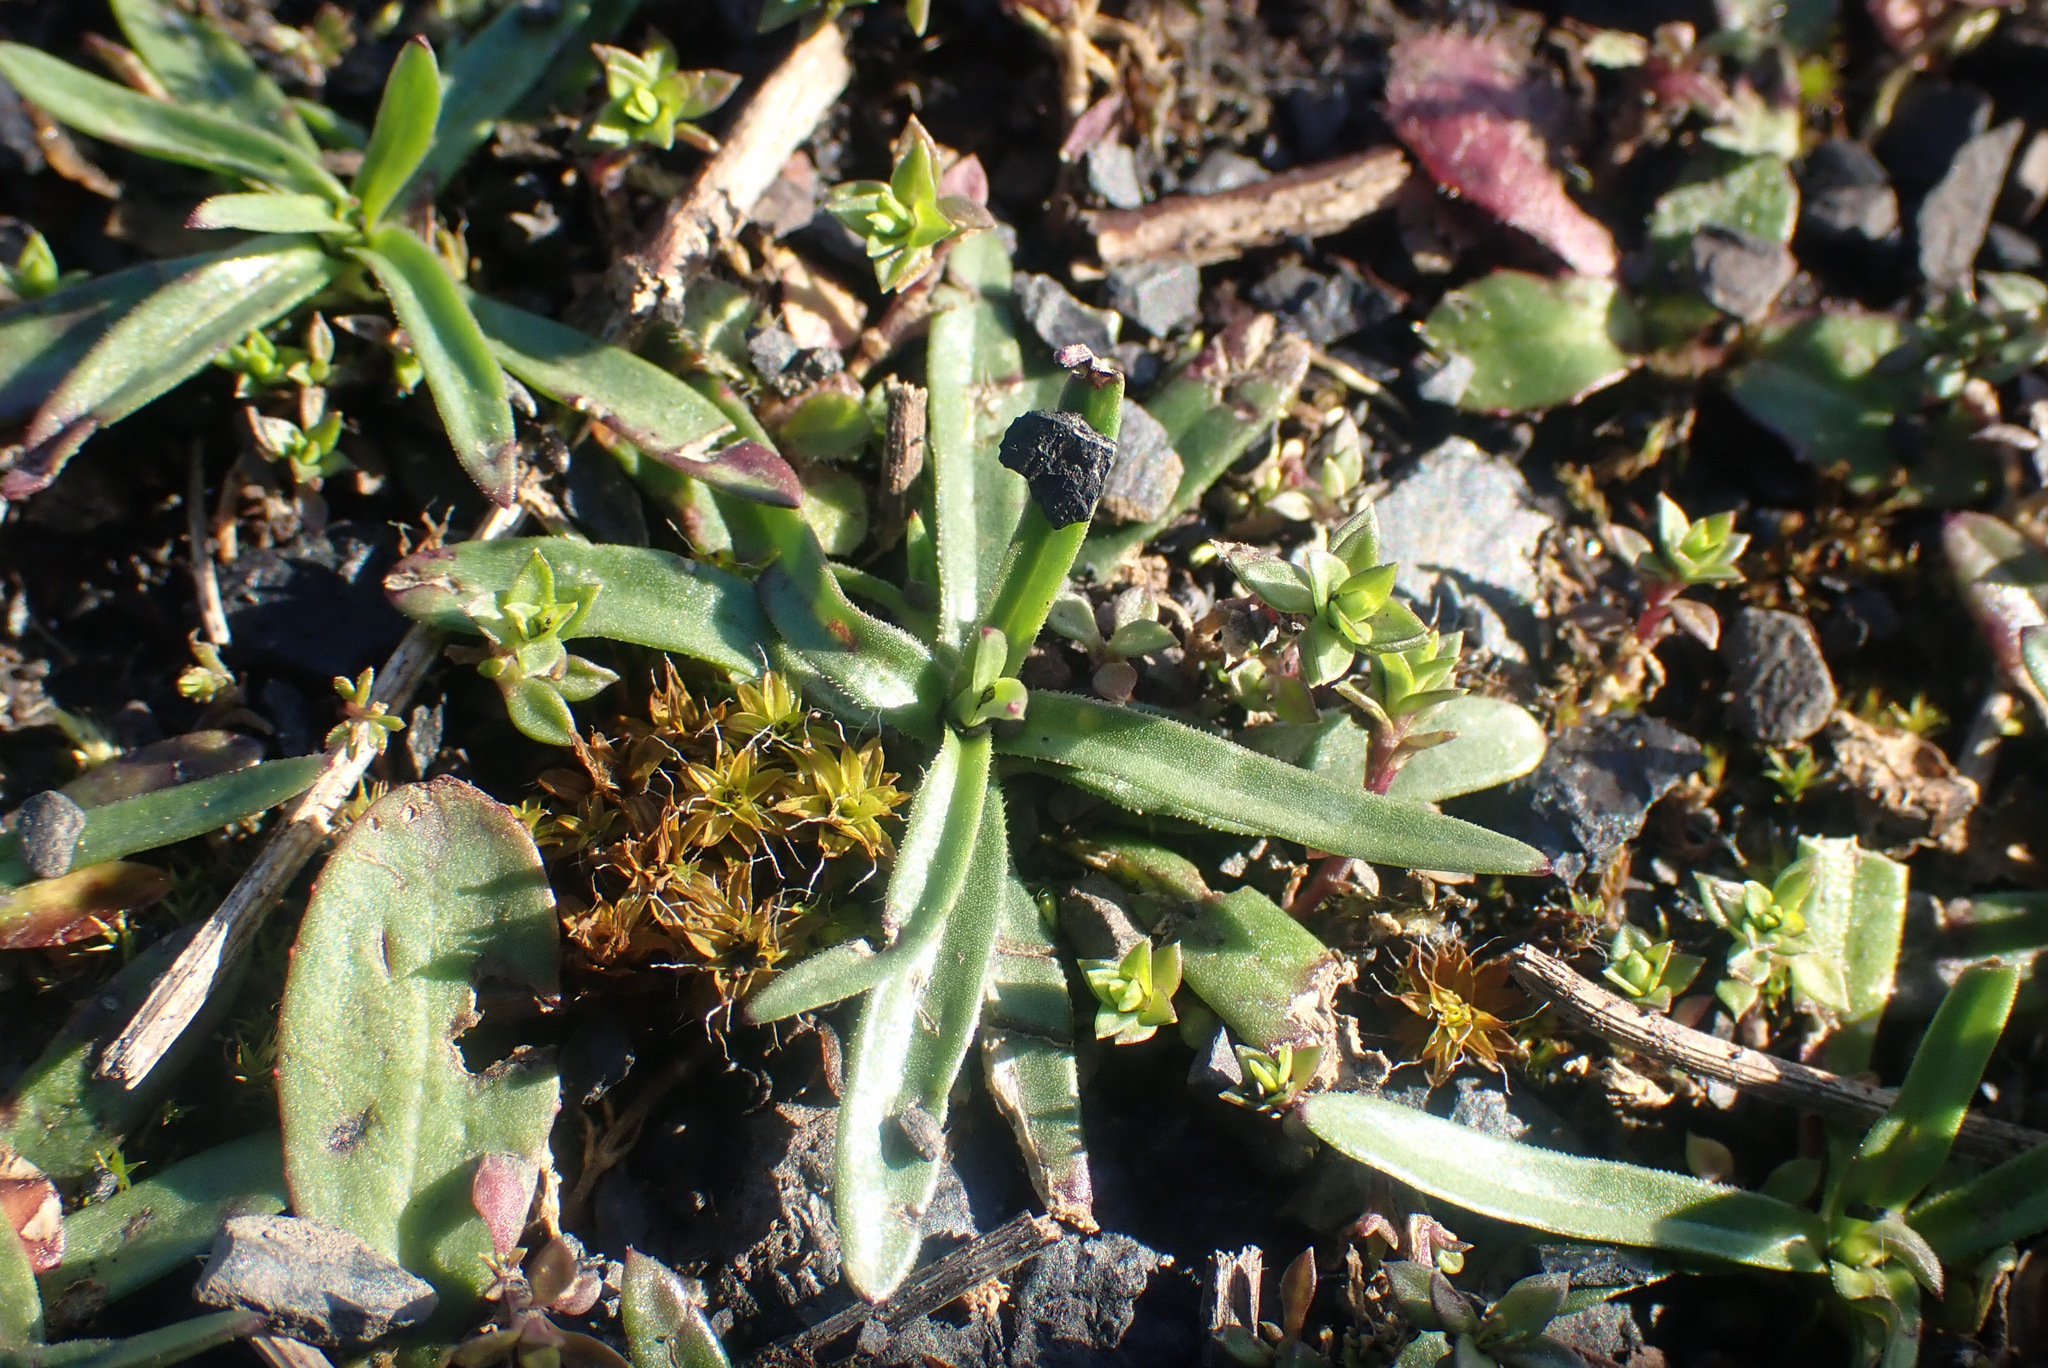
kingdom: Plantae
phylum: Tracheophyta
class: Magnoliopsida
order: Caryophyllales
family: Caryophyllaceae
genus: Dianthus
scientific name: Dianthus armeria
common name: Deptford pink
